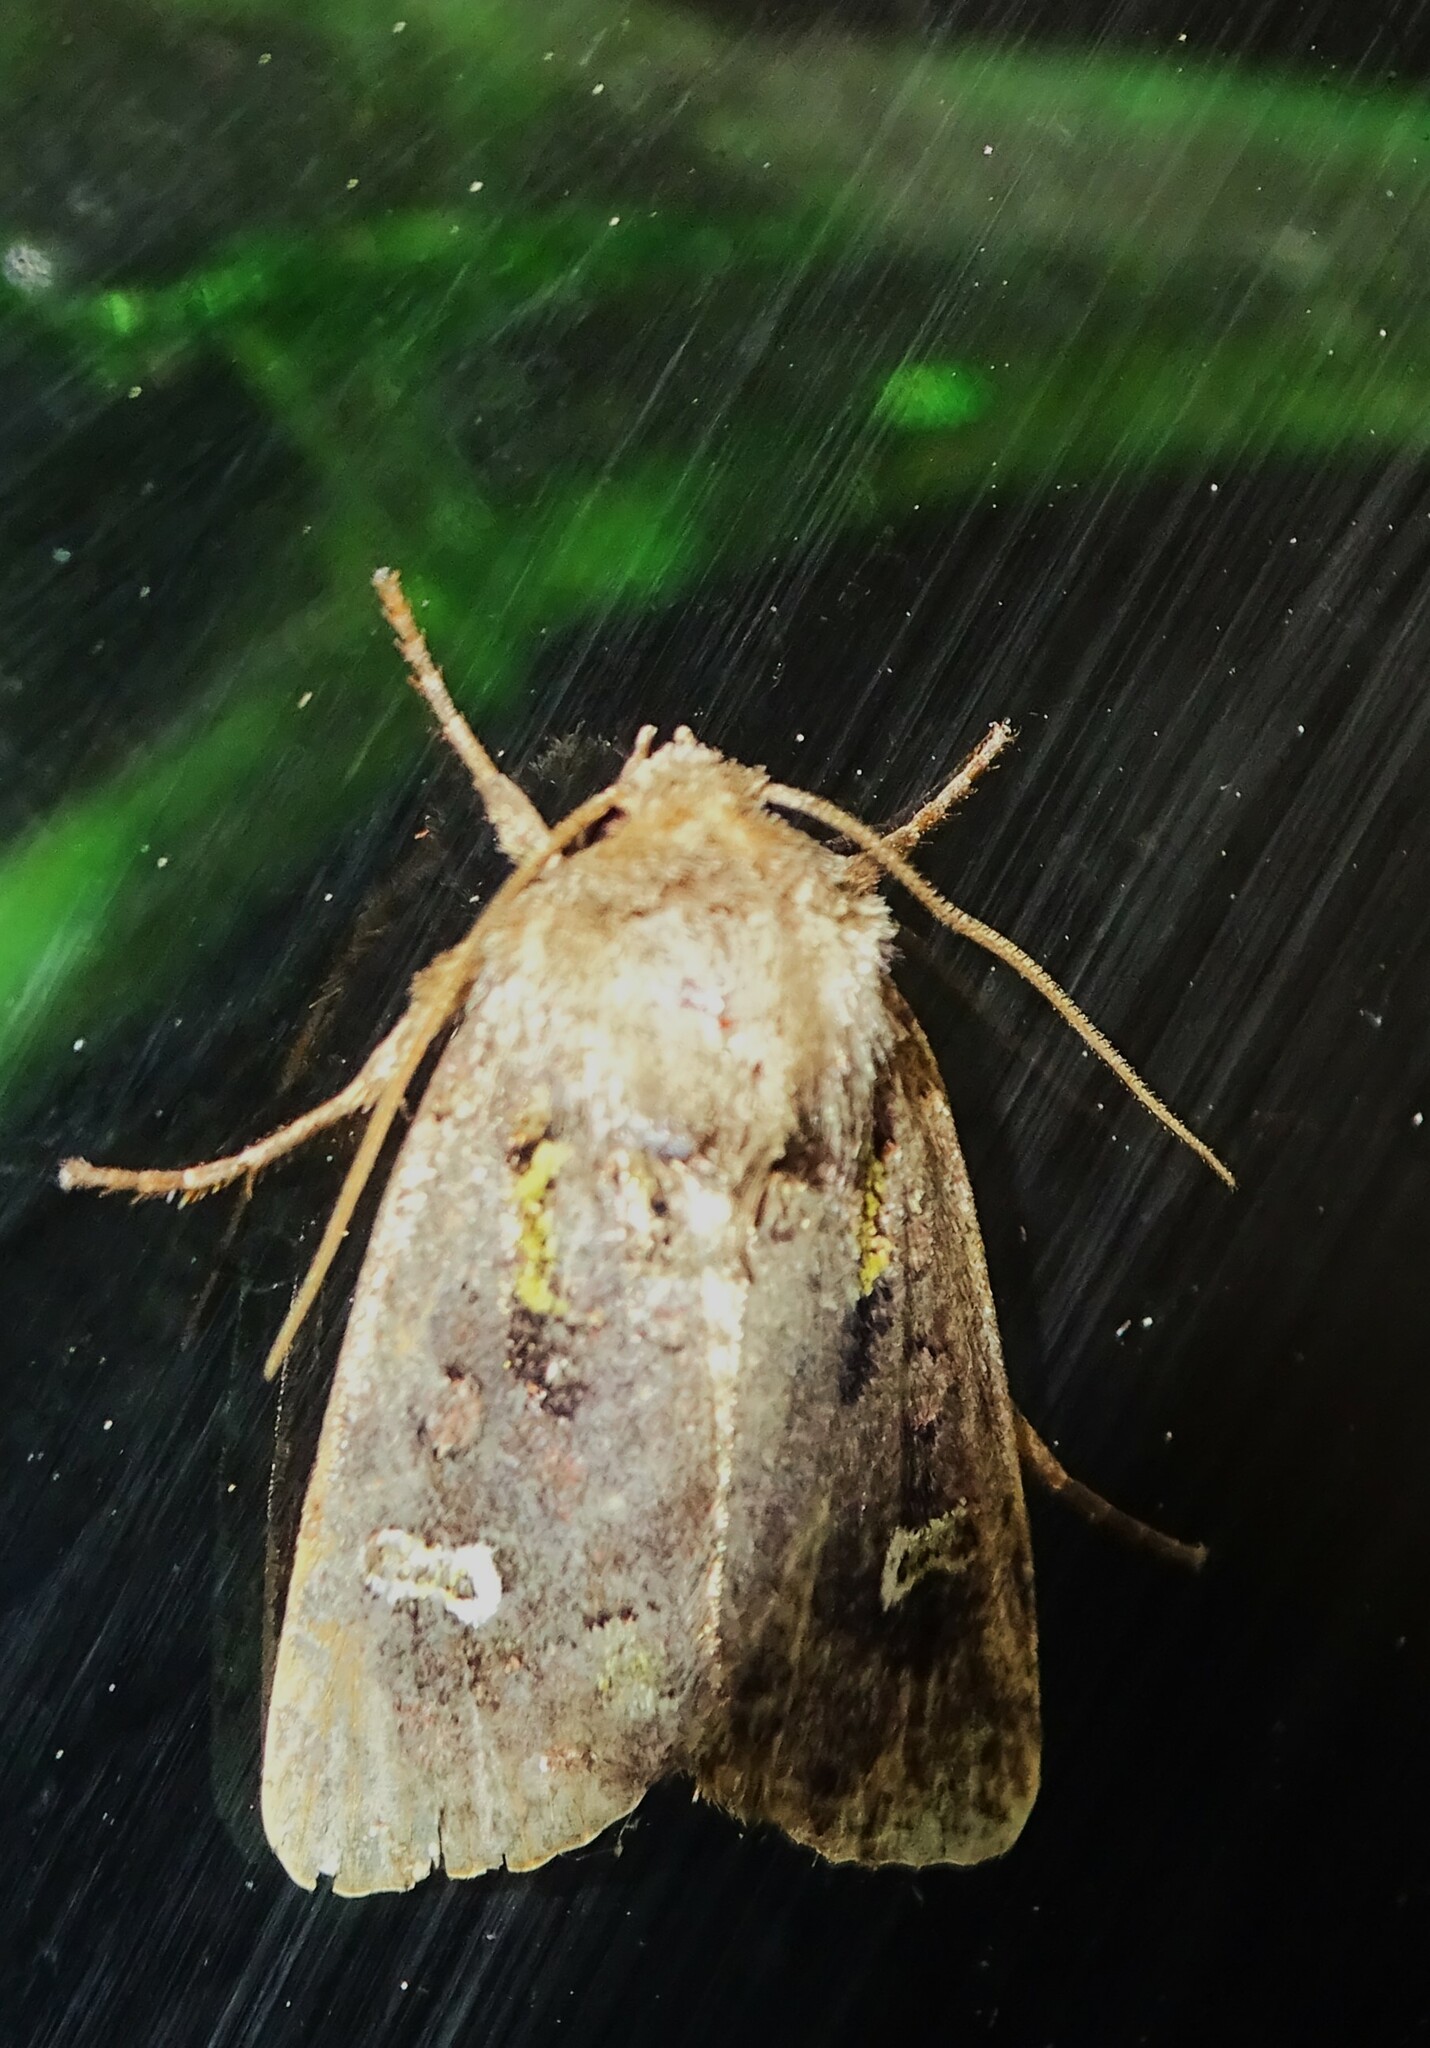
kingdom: Animalia
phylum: Arthropoda
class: Insecta
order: Lepidoptera
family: Noctuidae
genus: Lacinipolia
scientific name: Lacinipolia renigera
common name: Kidney-spotted minor
